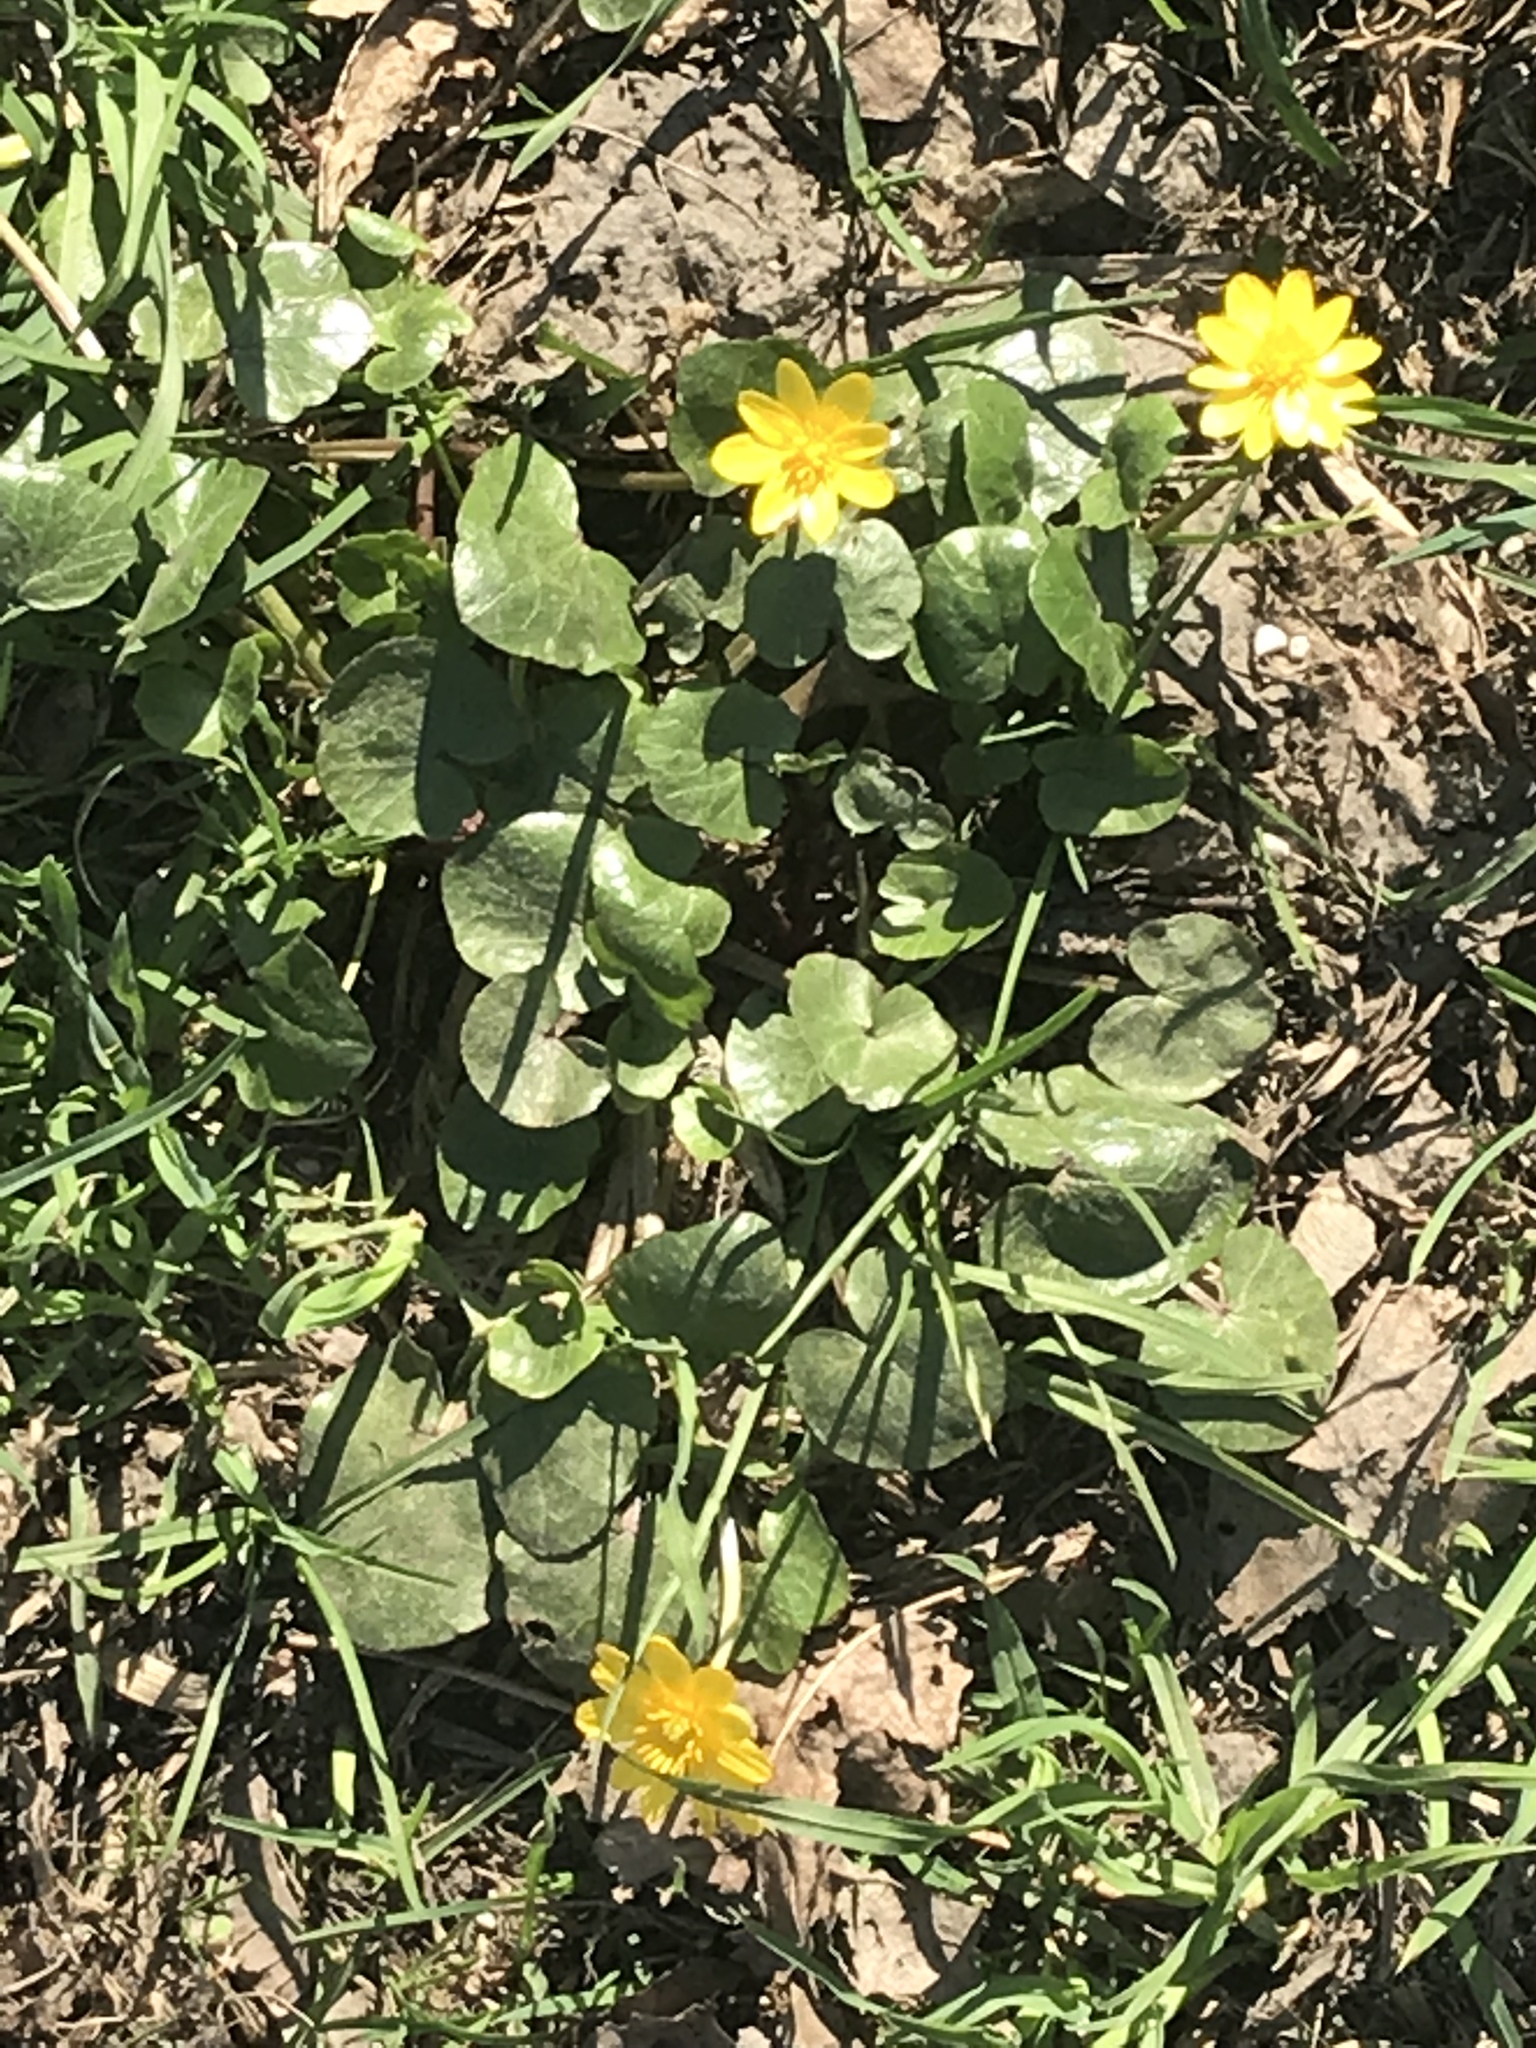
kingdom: Plantae
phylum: Tracheophyta
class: Magnoliopsida
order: Ranunculales
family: Ranunculaceae
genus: Ficaria
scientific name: Ficaria verna
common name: Lesser celandine
